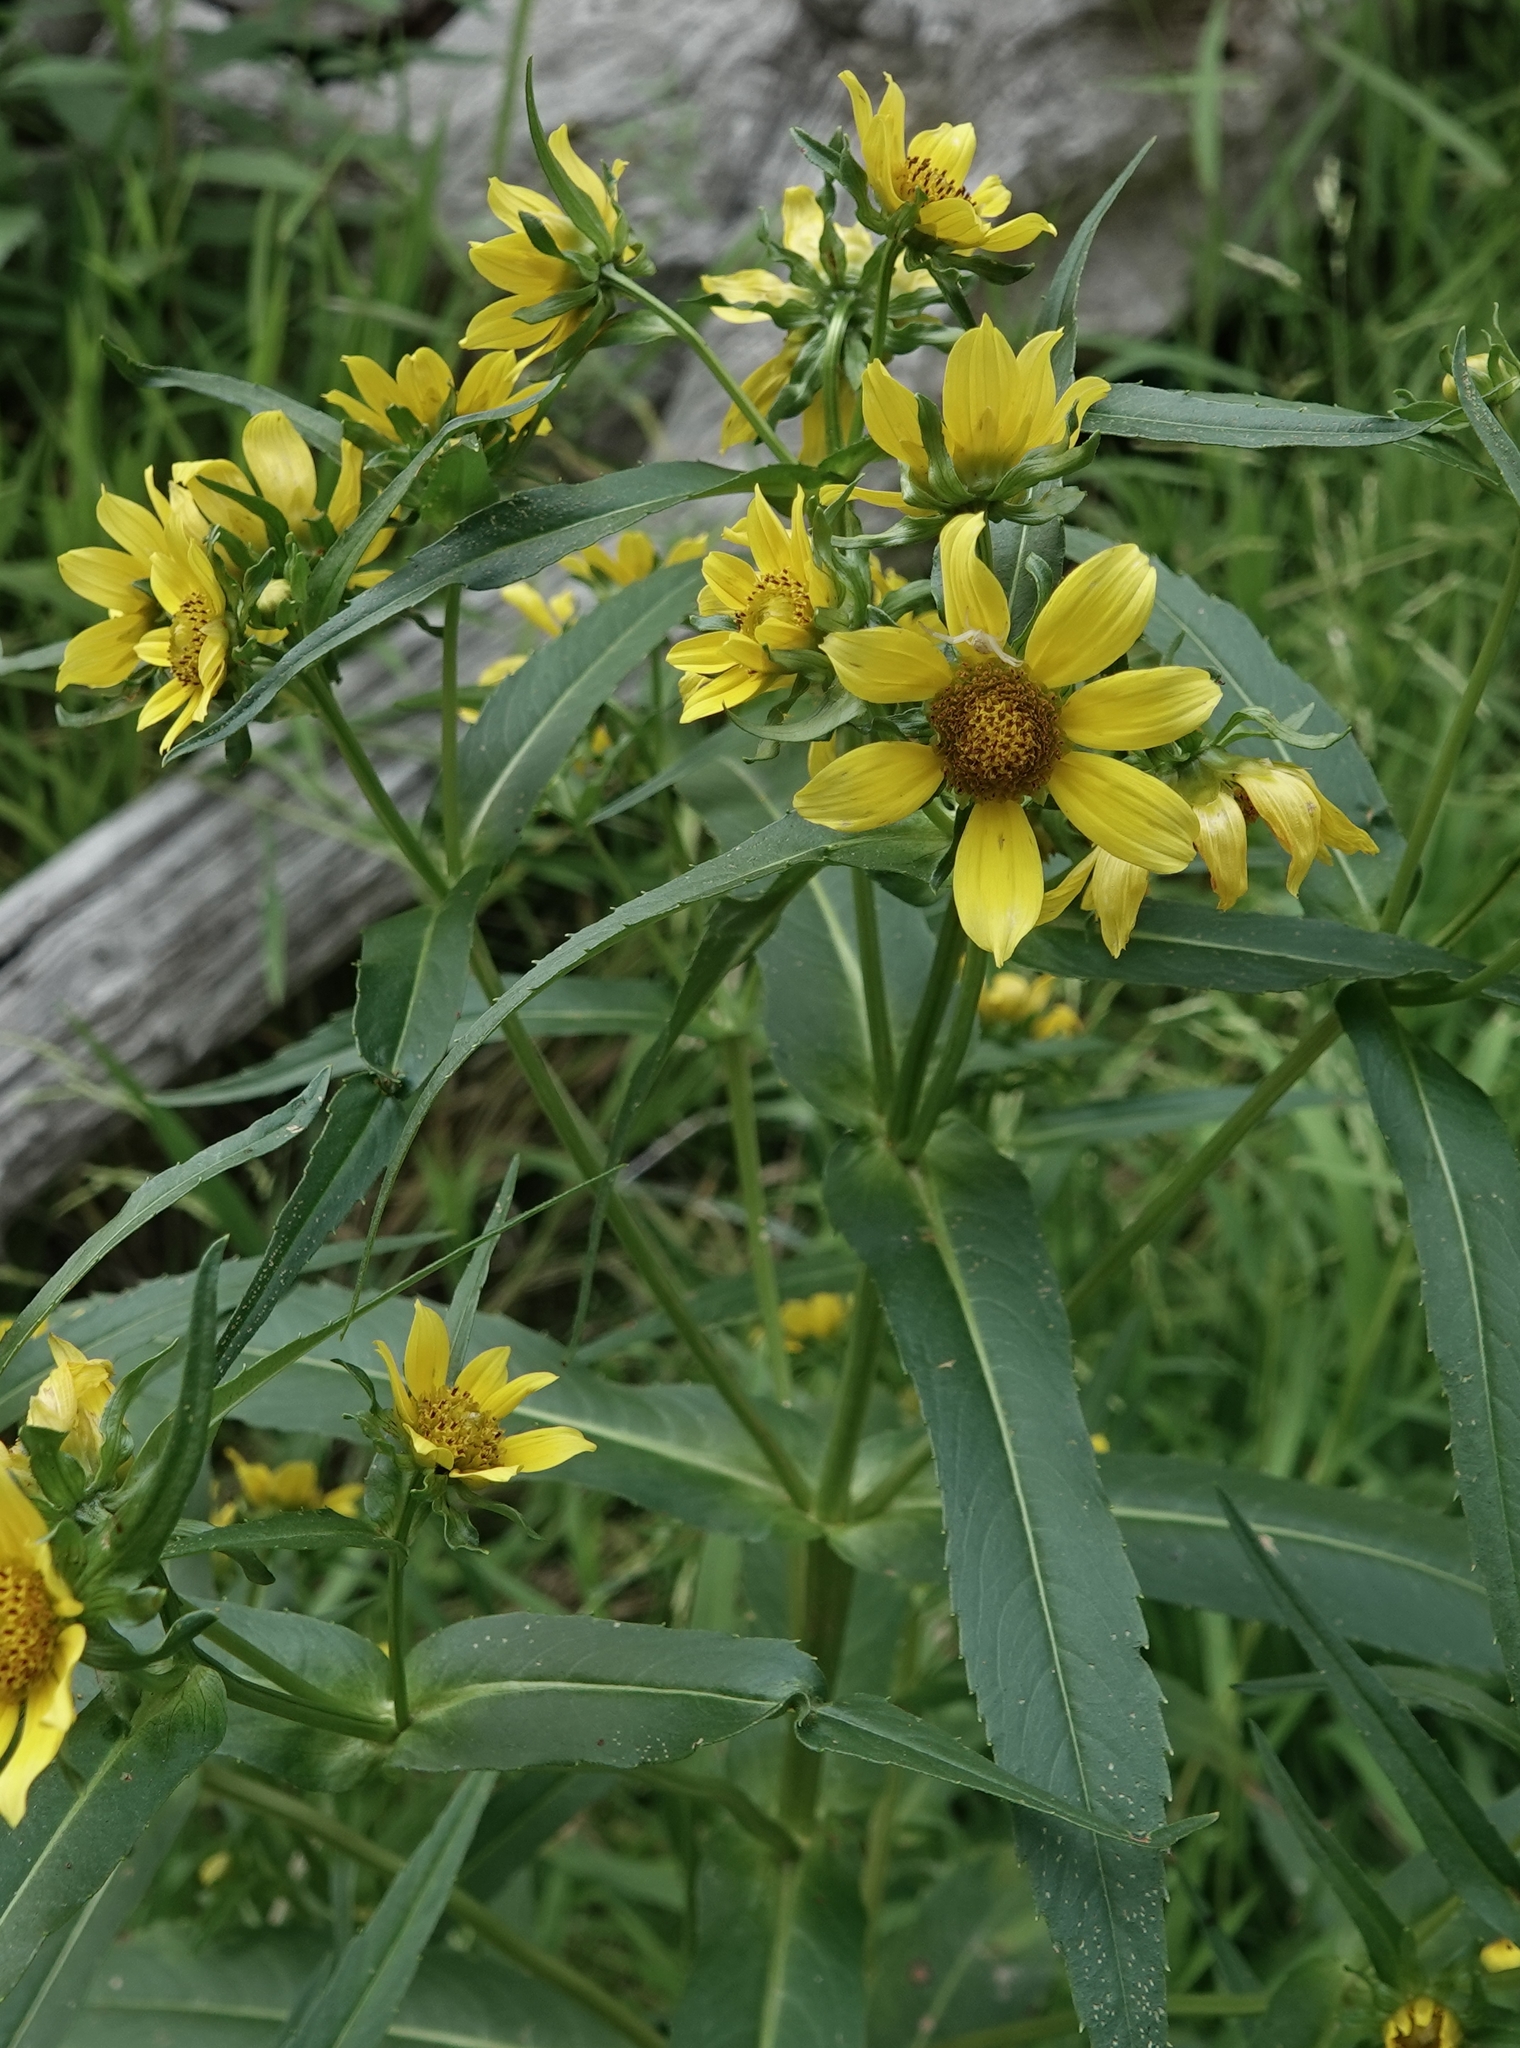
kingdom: Plantae
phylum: Tracheophyta
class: Magnoliopsida
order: Asterales
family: Asteraceae
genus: Bidens
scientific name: Bidens cernua
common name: Nodding bur-marigold
